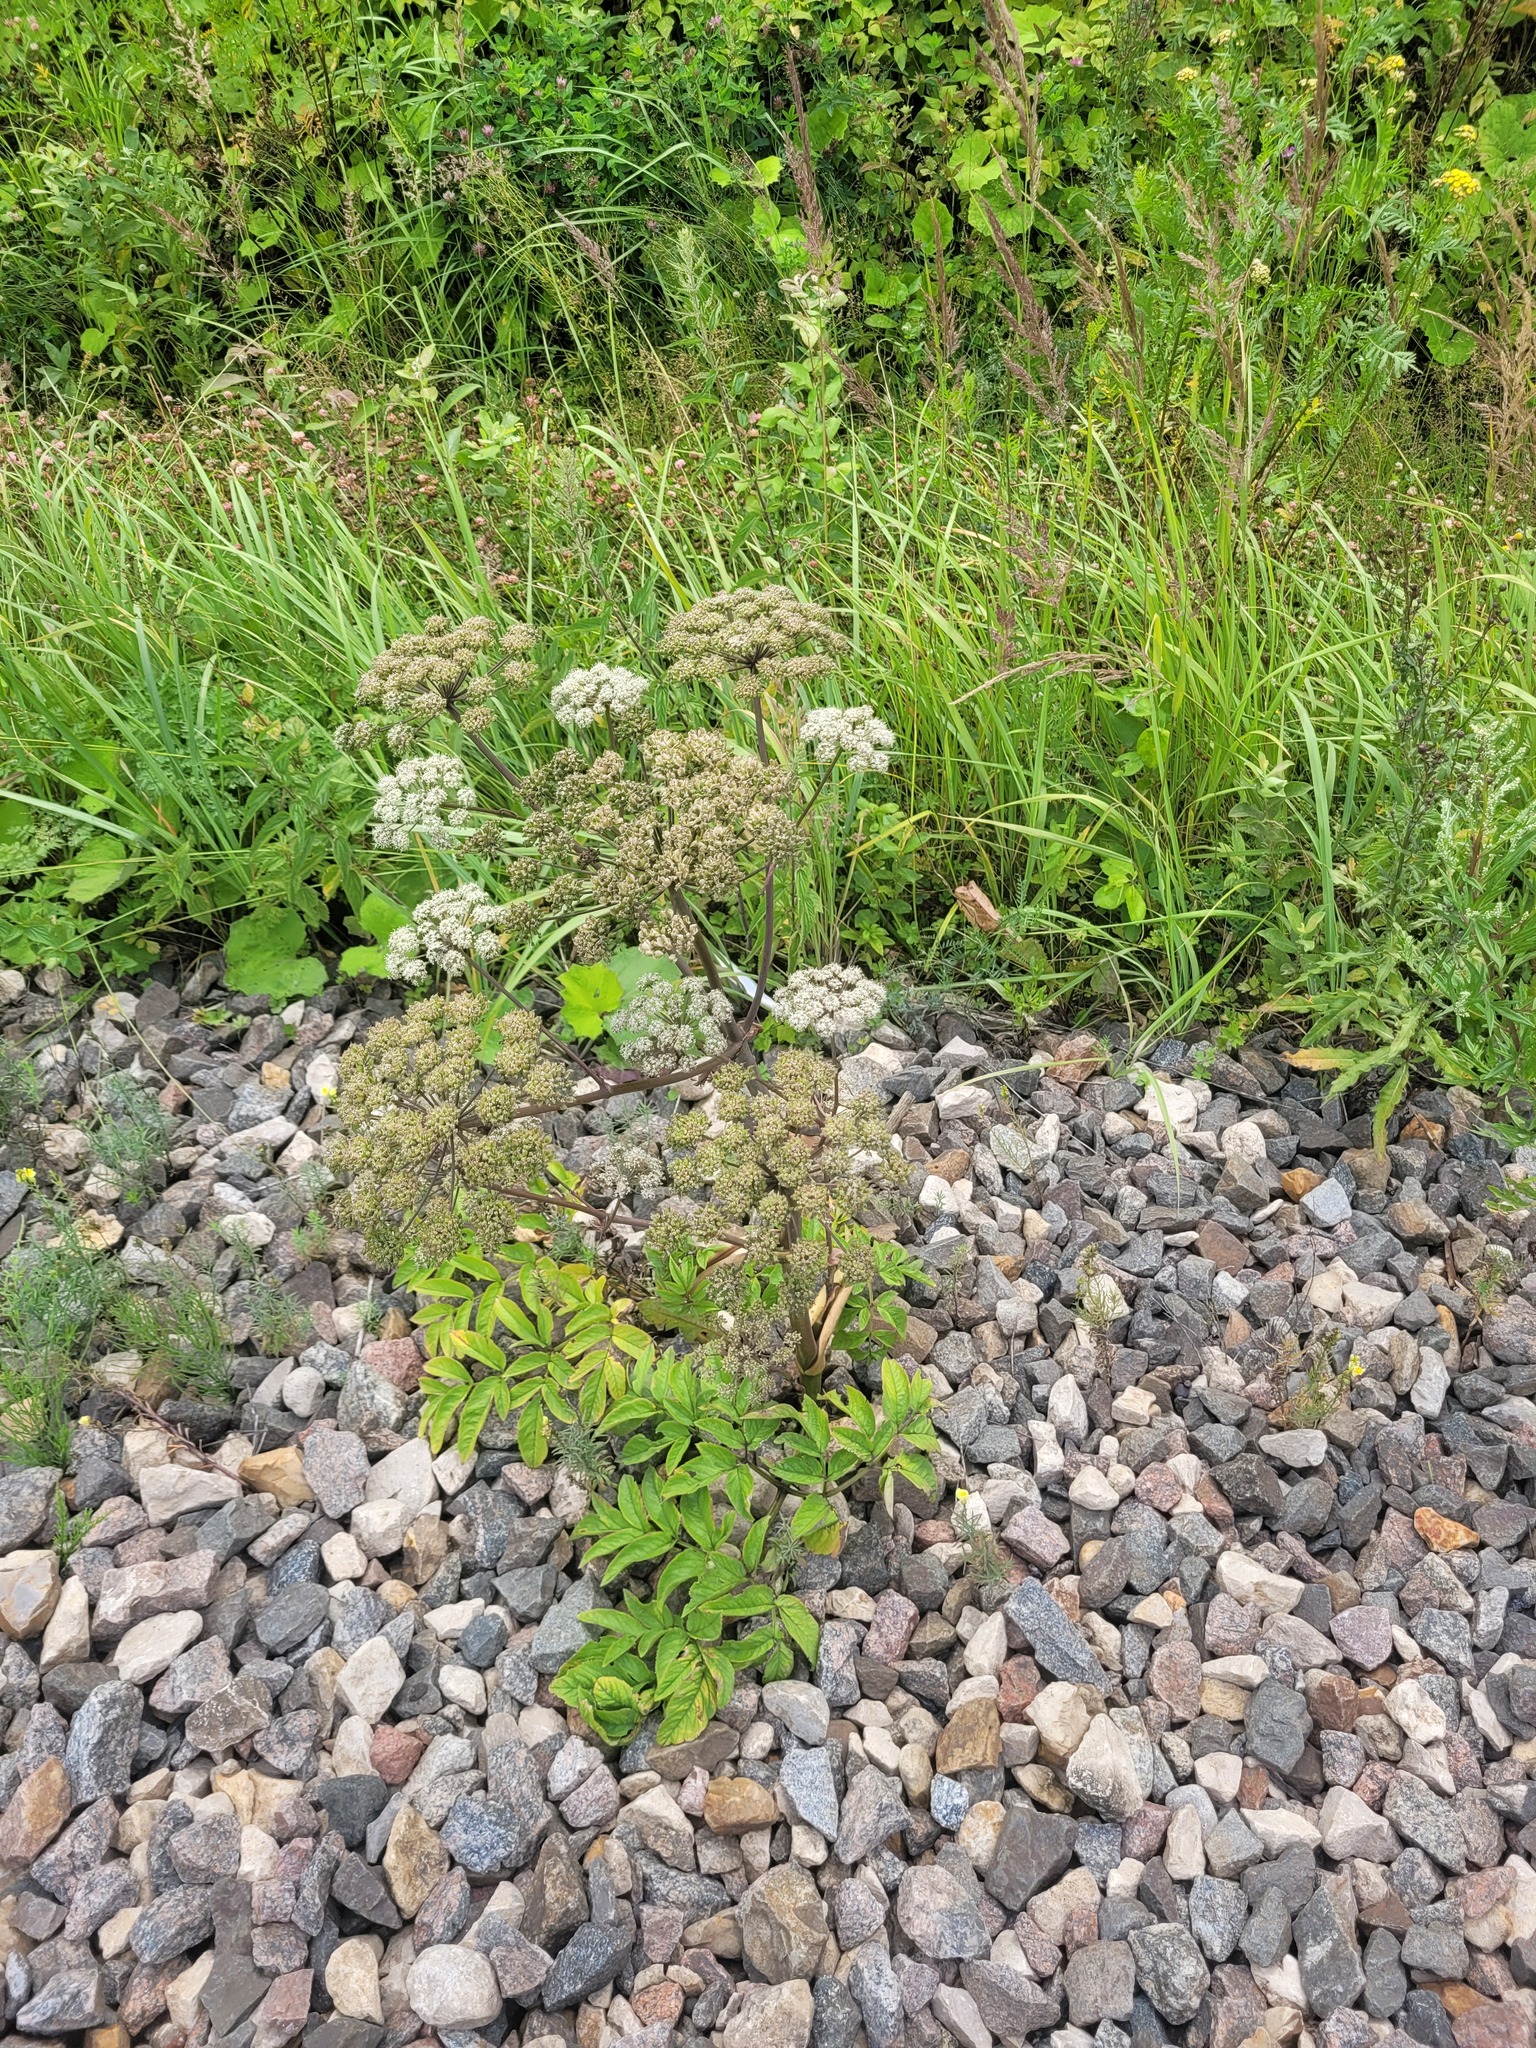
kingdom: Plantae
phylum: Tracheophyta
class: Magnoliopsida
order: Apiales
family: Apiaceae
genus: Angelica
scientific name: Angelica sylvestris
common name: Wild angelica
